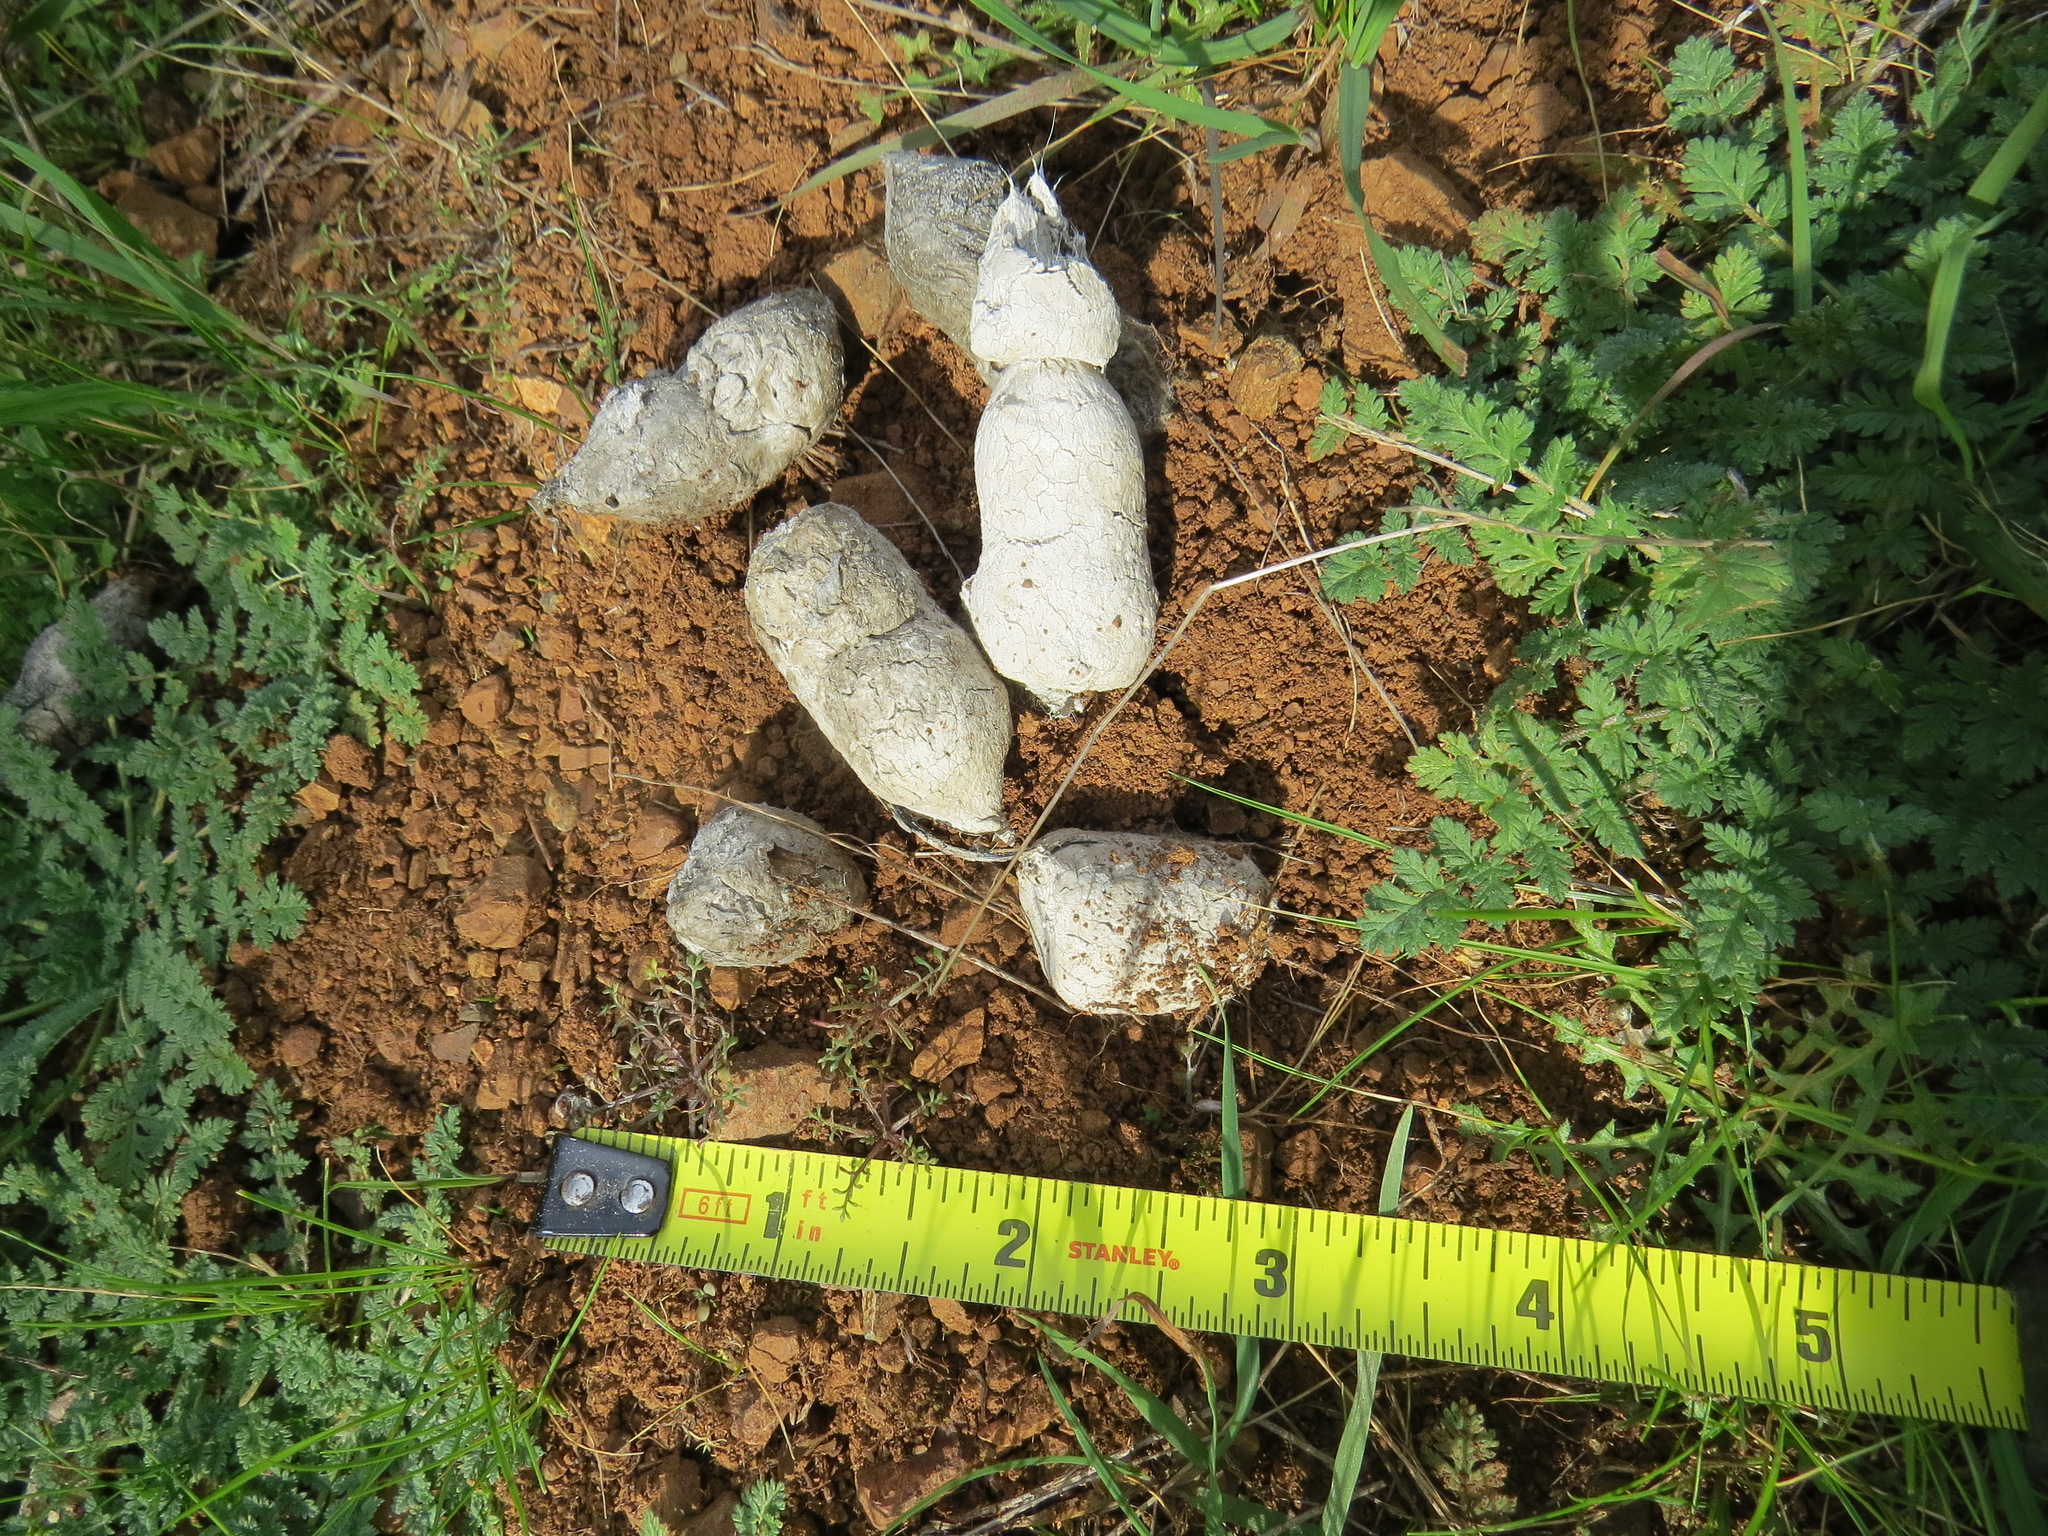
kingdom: Animalia
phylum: Chordata
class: Mammalia
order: Carnivora
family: Felidae
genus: Lynx
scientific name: Lynx rufus
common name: Bobcat
